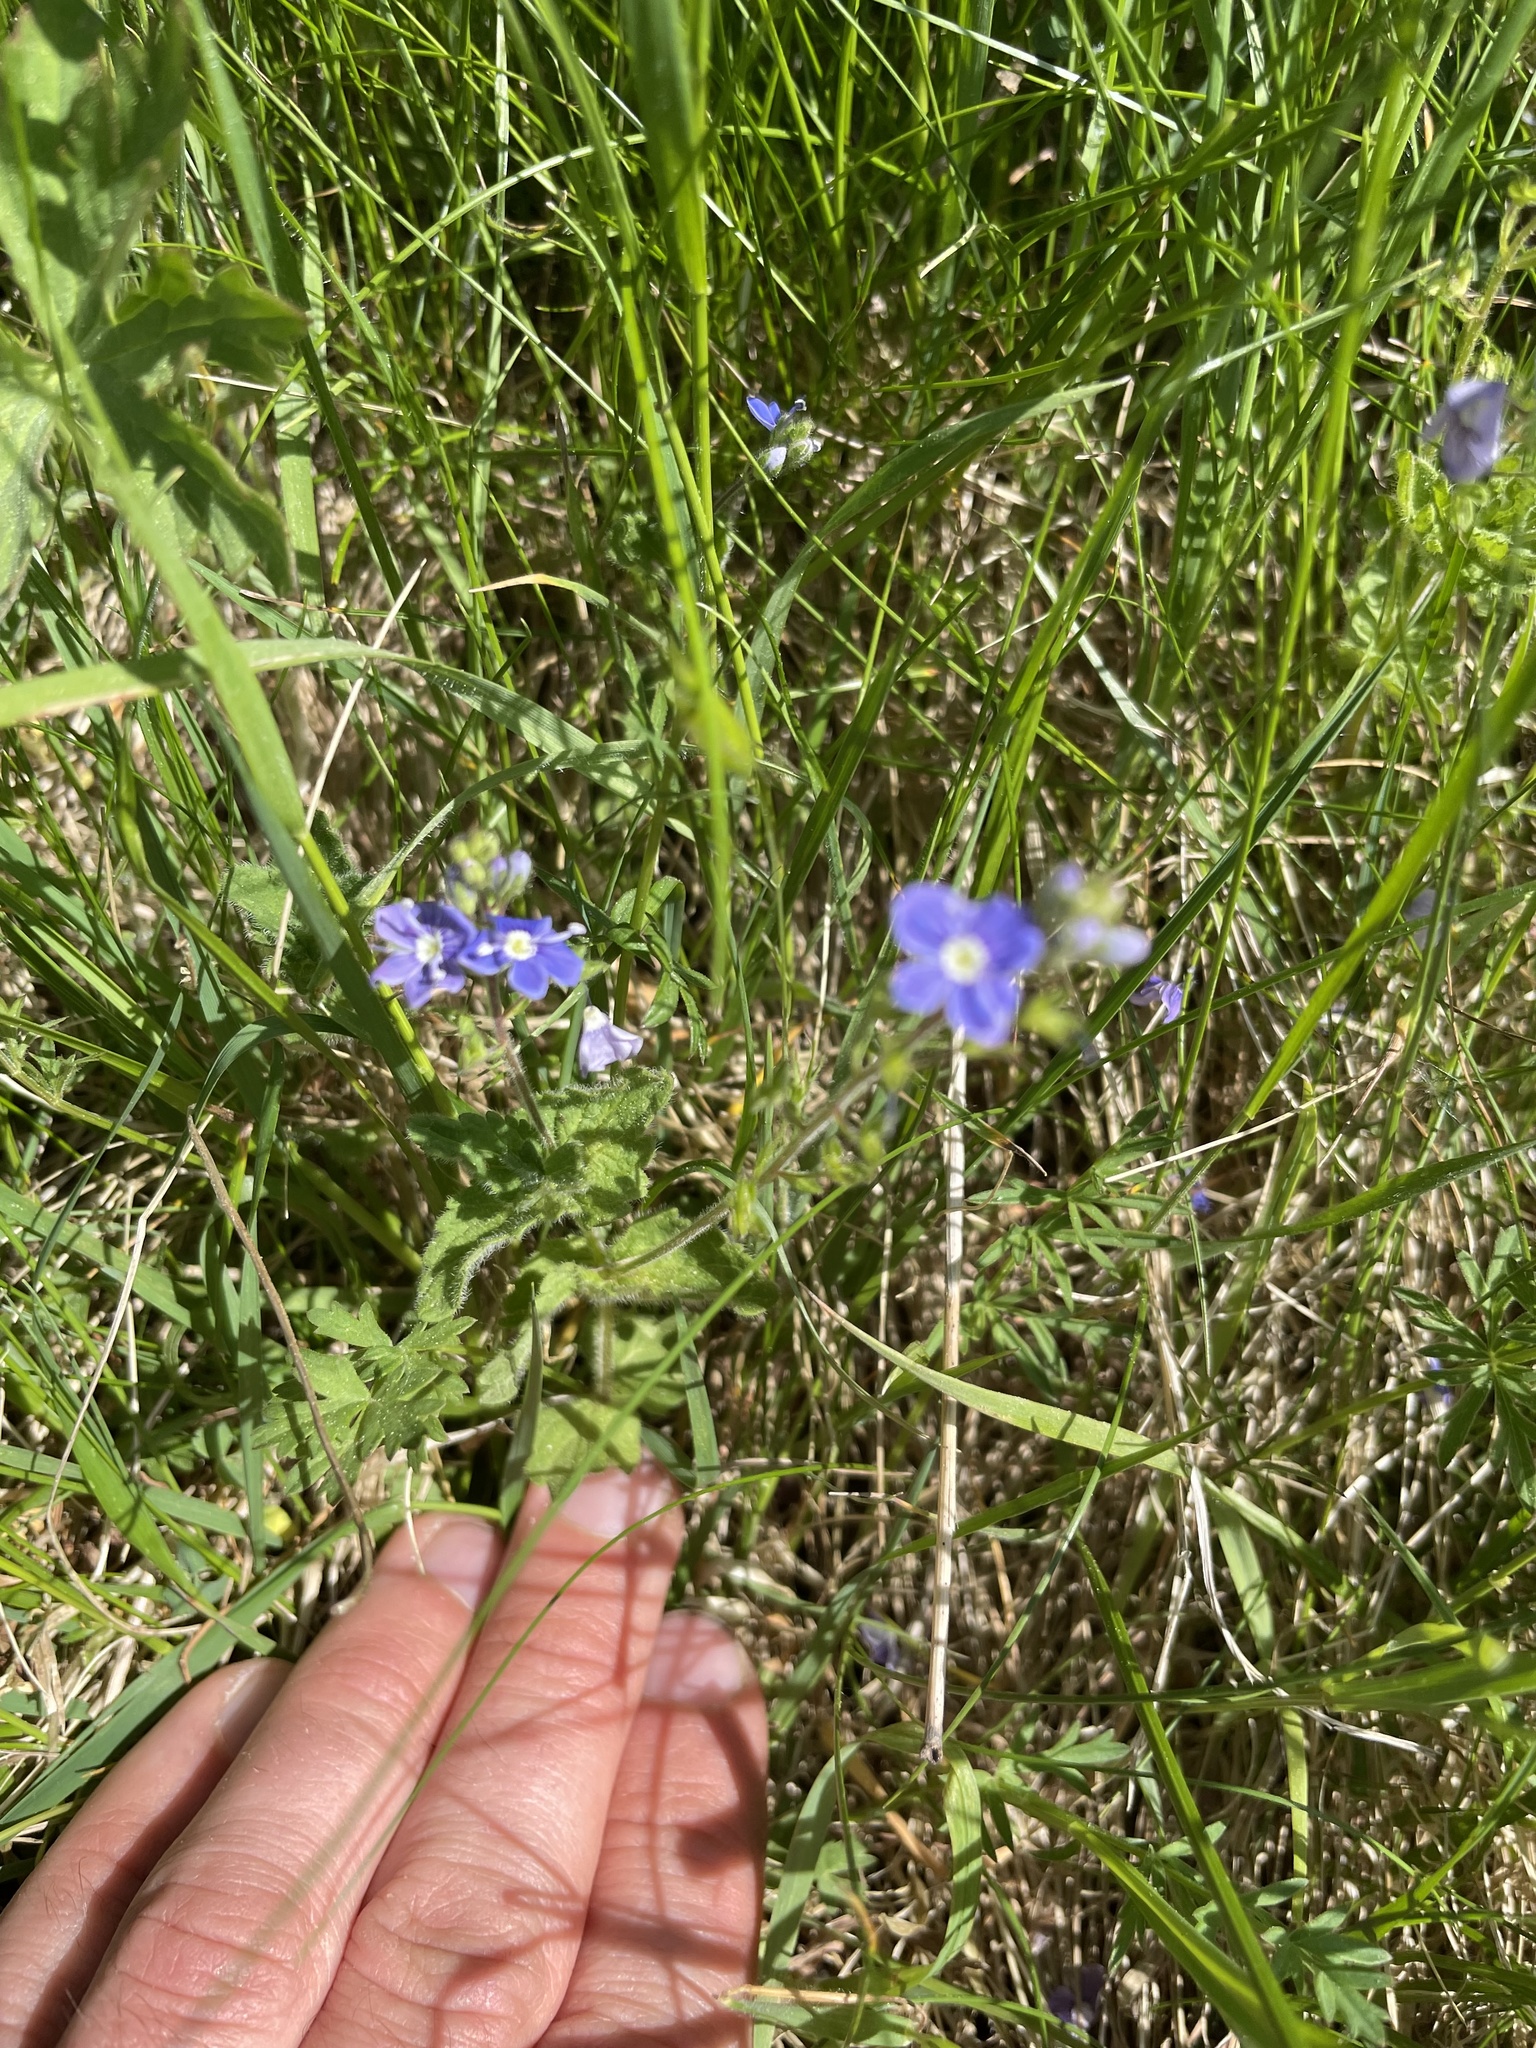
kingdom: Plantae
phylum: Tracheophyta
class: Magnoliopsida
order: Lamiales
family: Plantaginaceae
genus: Veronica
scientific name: Veronica chamaedrys
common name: Germander speedwell
